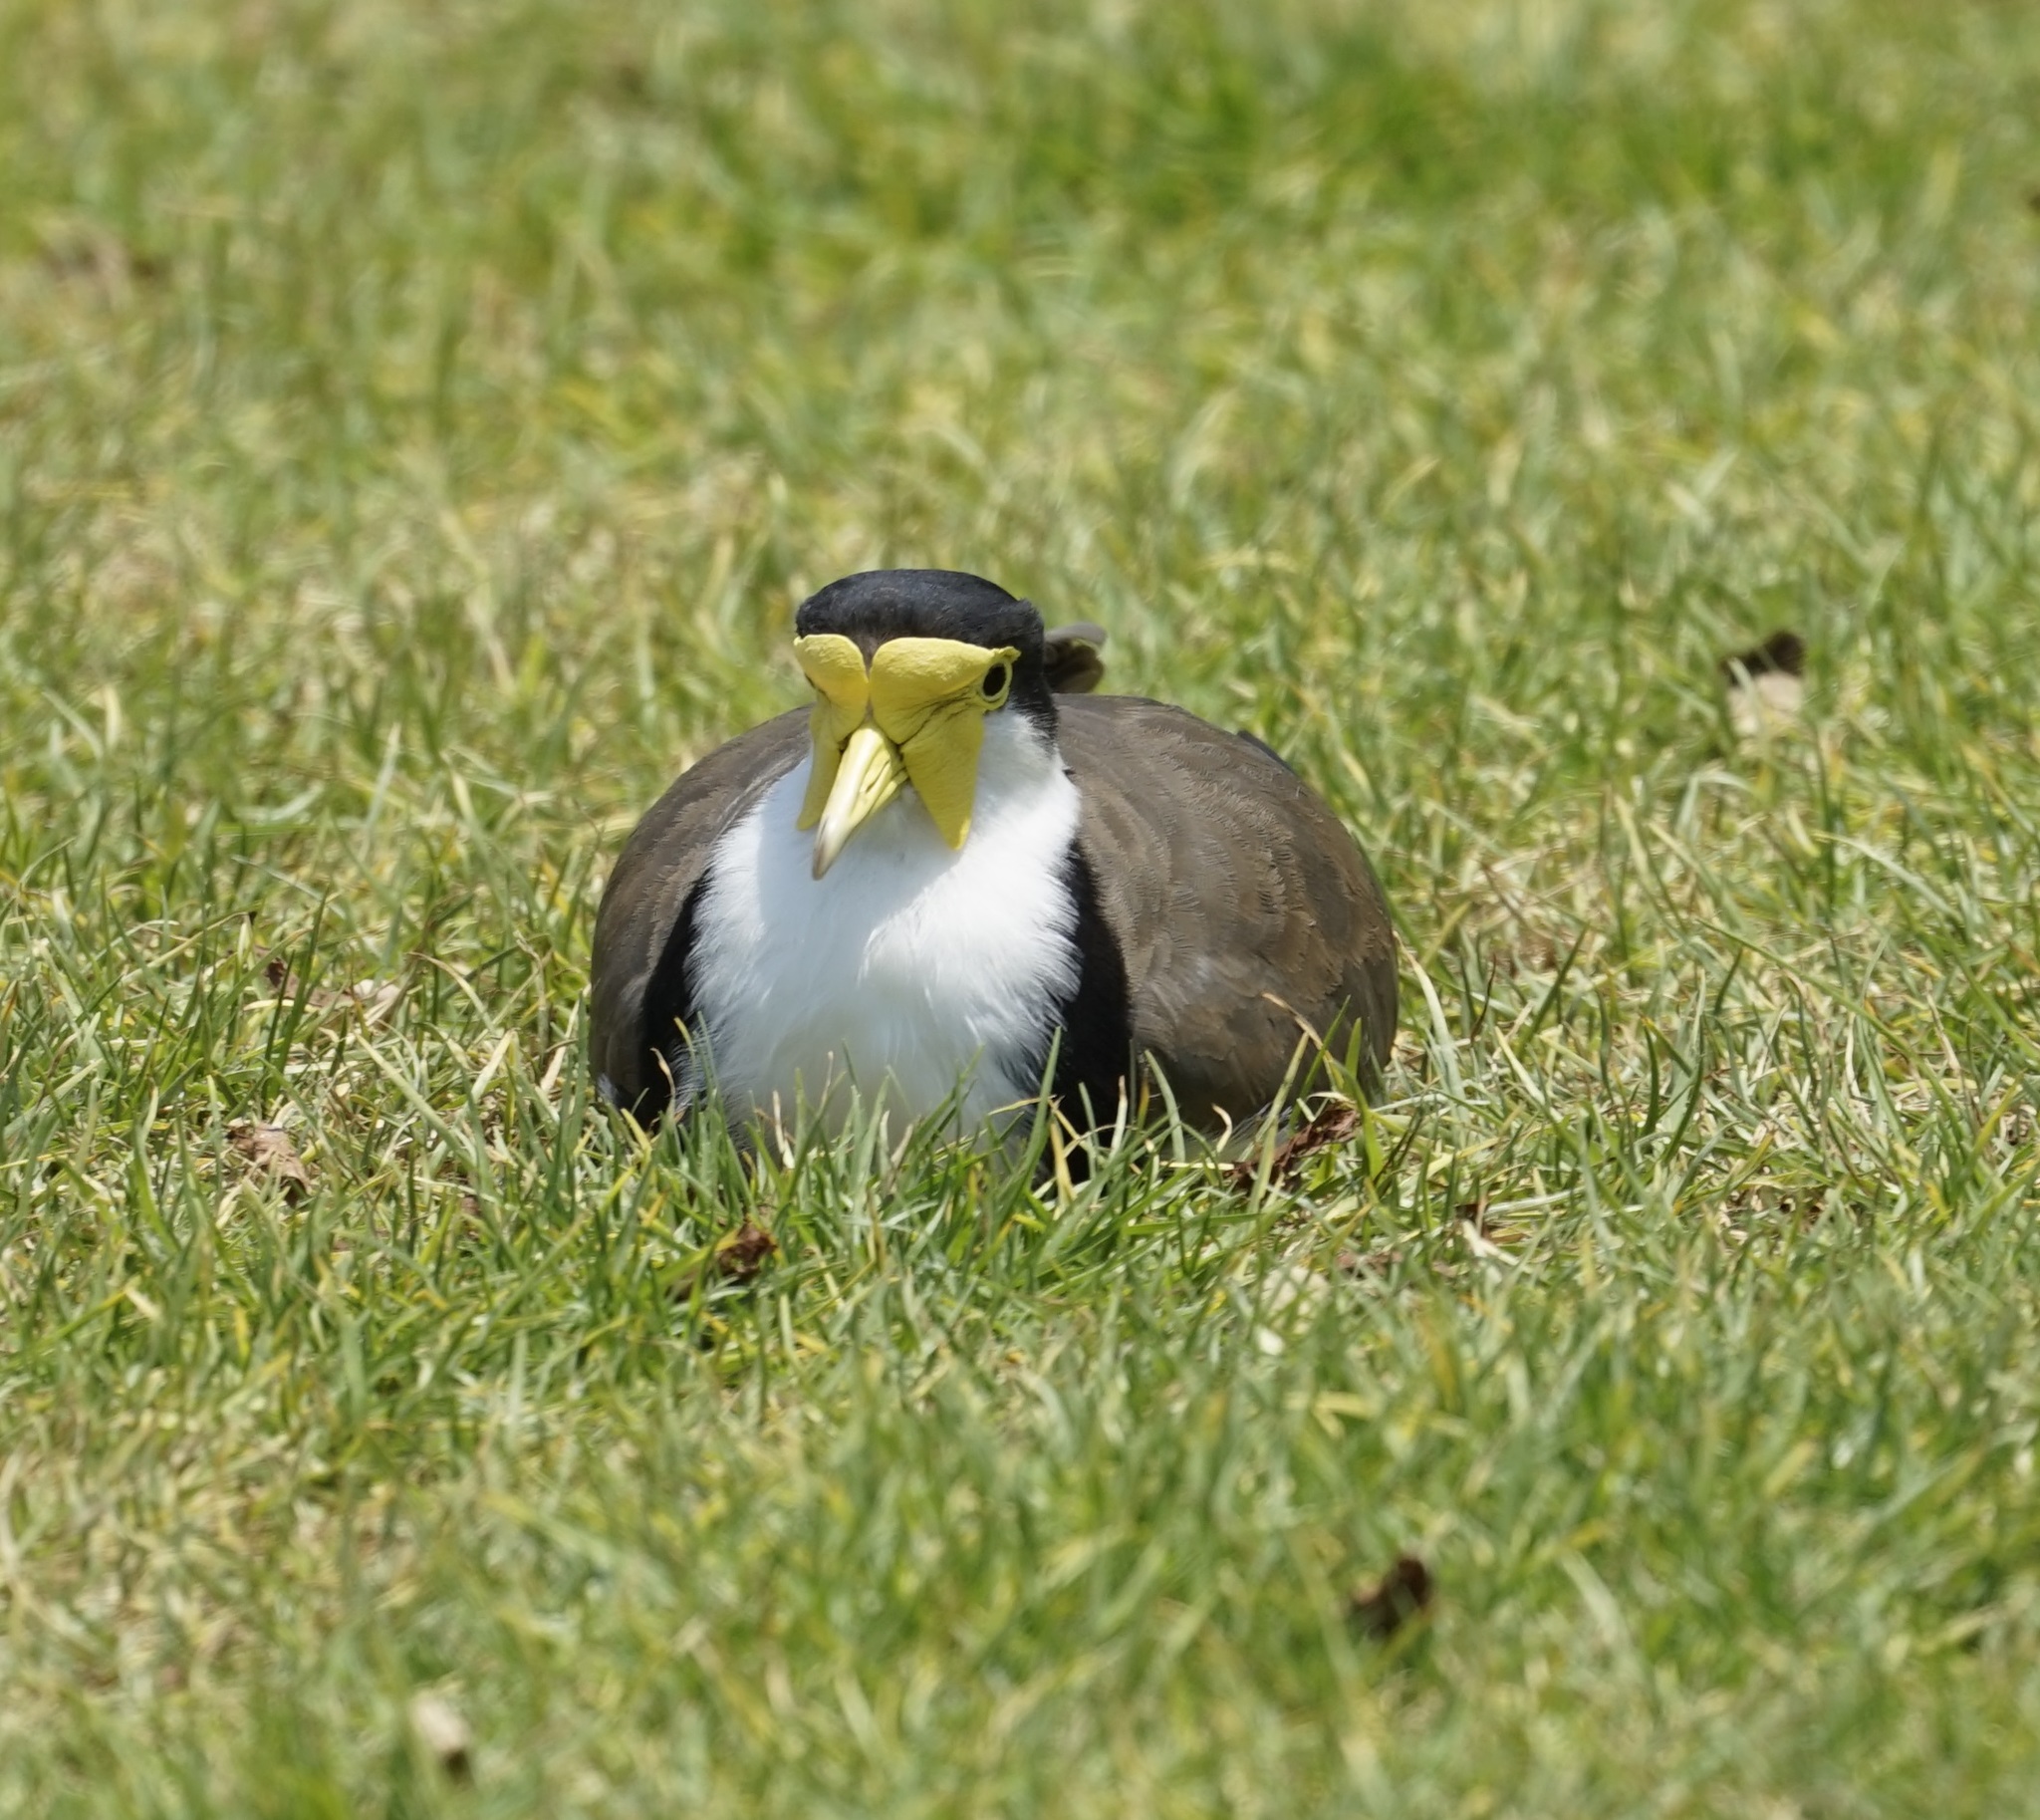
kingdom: Animalia
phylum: Chordata
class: Aves
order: Charadriiformes
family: Charadriidae
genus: Vanellus
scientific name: Vanellus miles
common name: Masked lapwing
